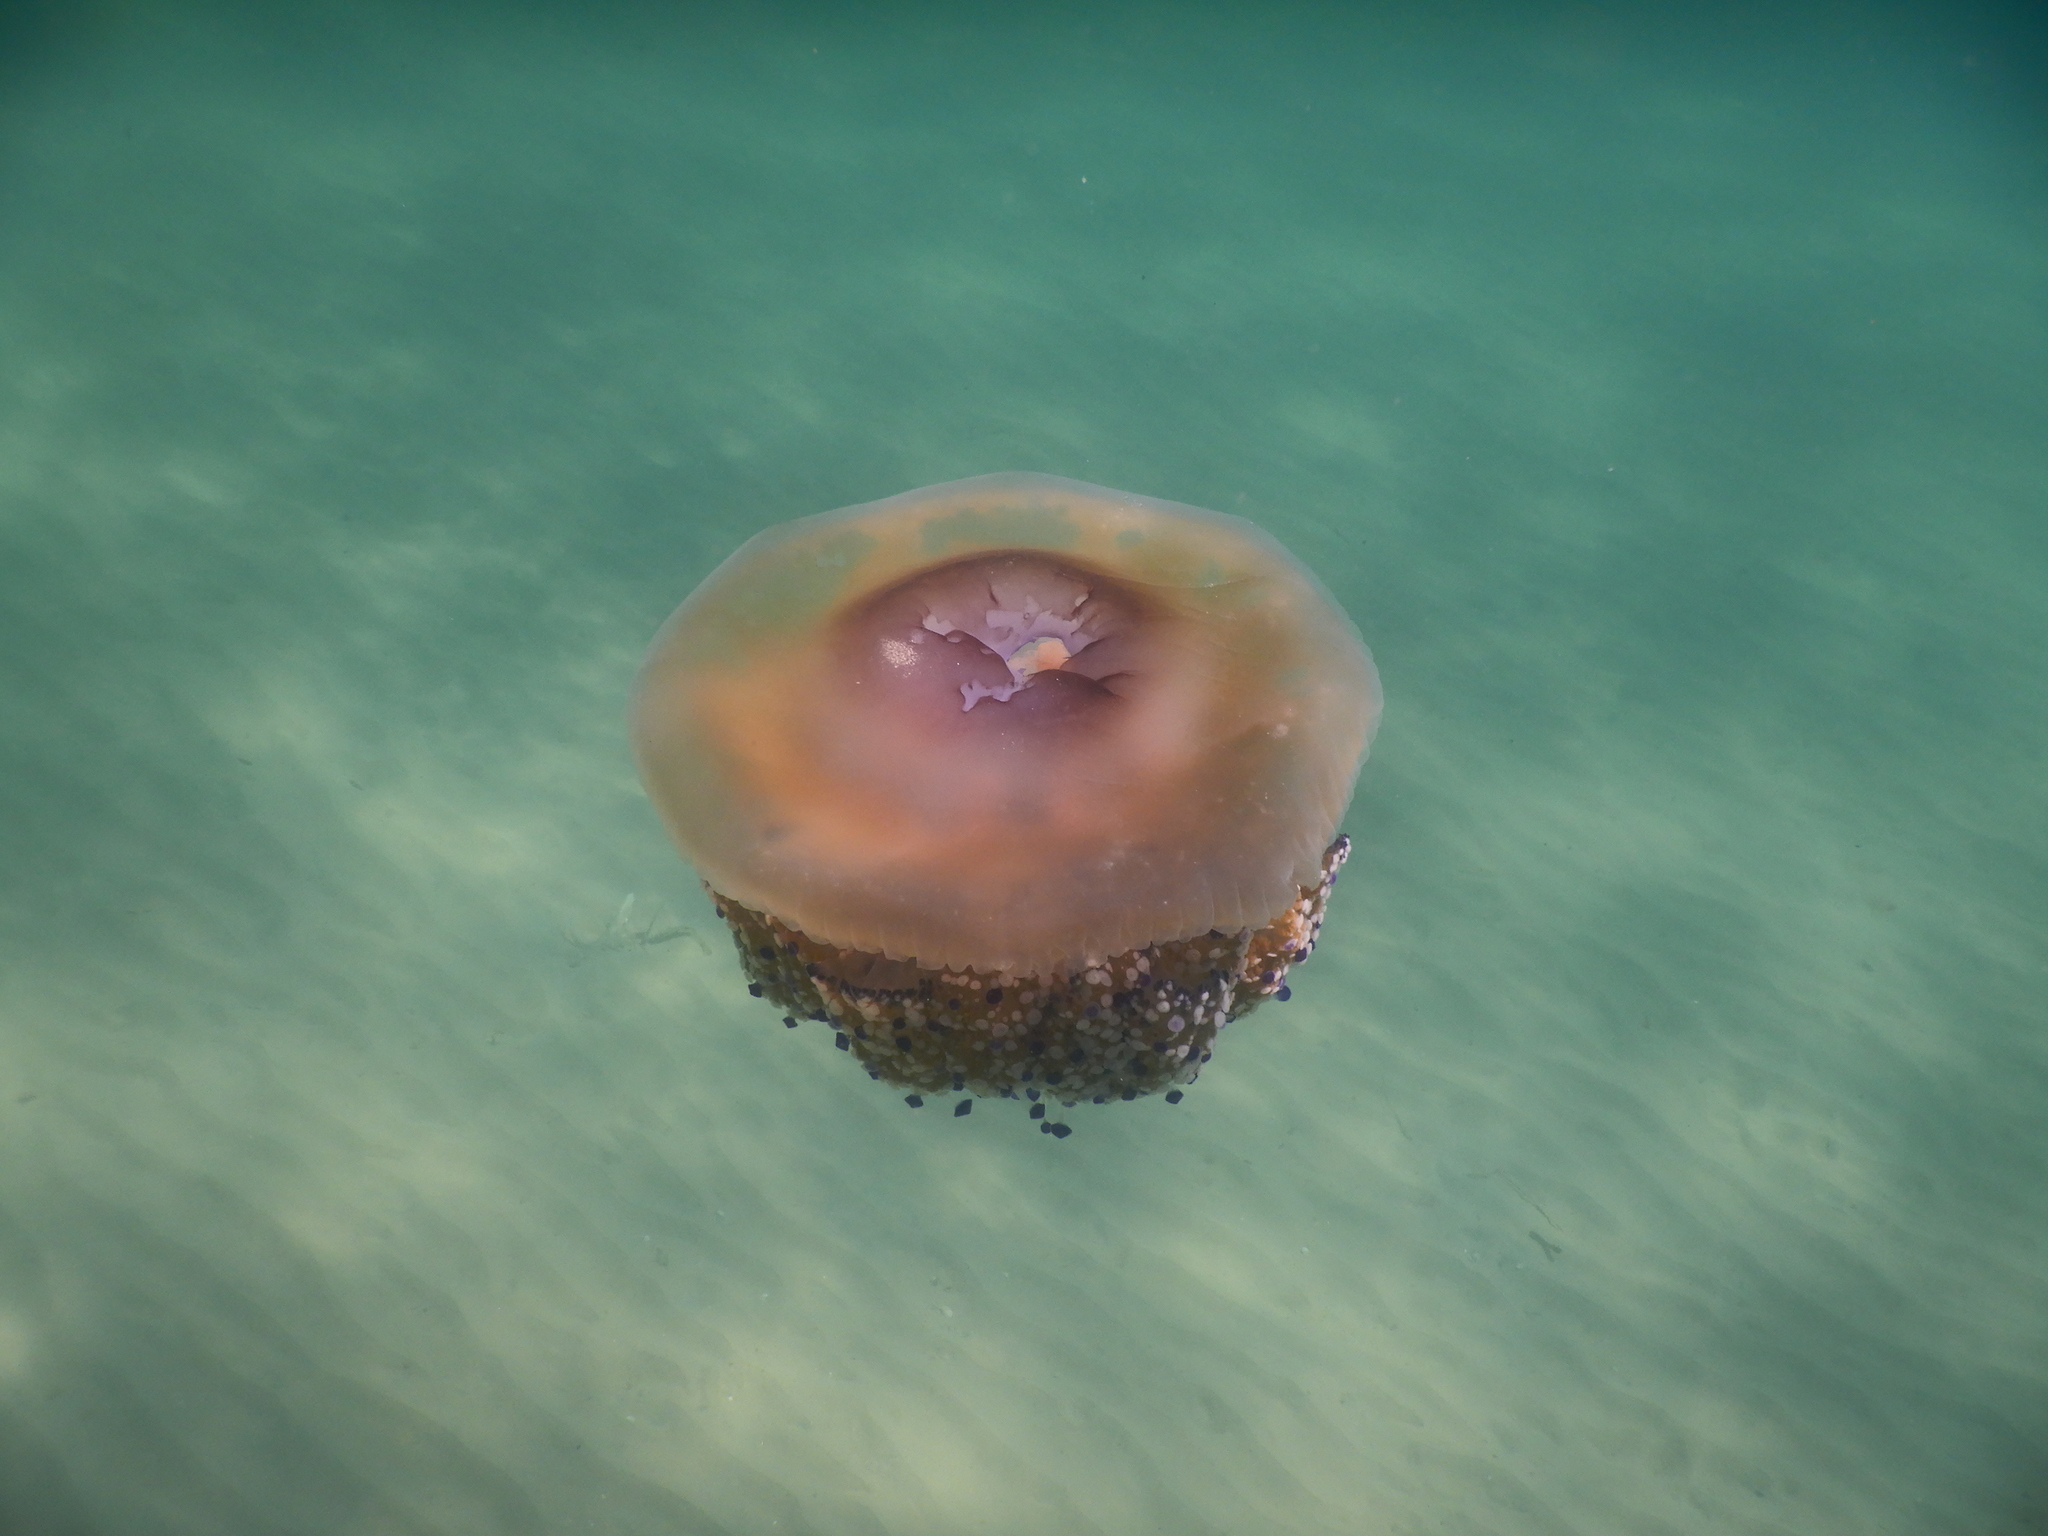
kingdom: Animalia
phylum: Cnidaria
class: Scyphozoa
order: Rhizostomeae
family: Cepheidae
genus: Cotylorhiza
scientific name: Cotylorhiza tuberculata
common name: Mediterranean jelly
